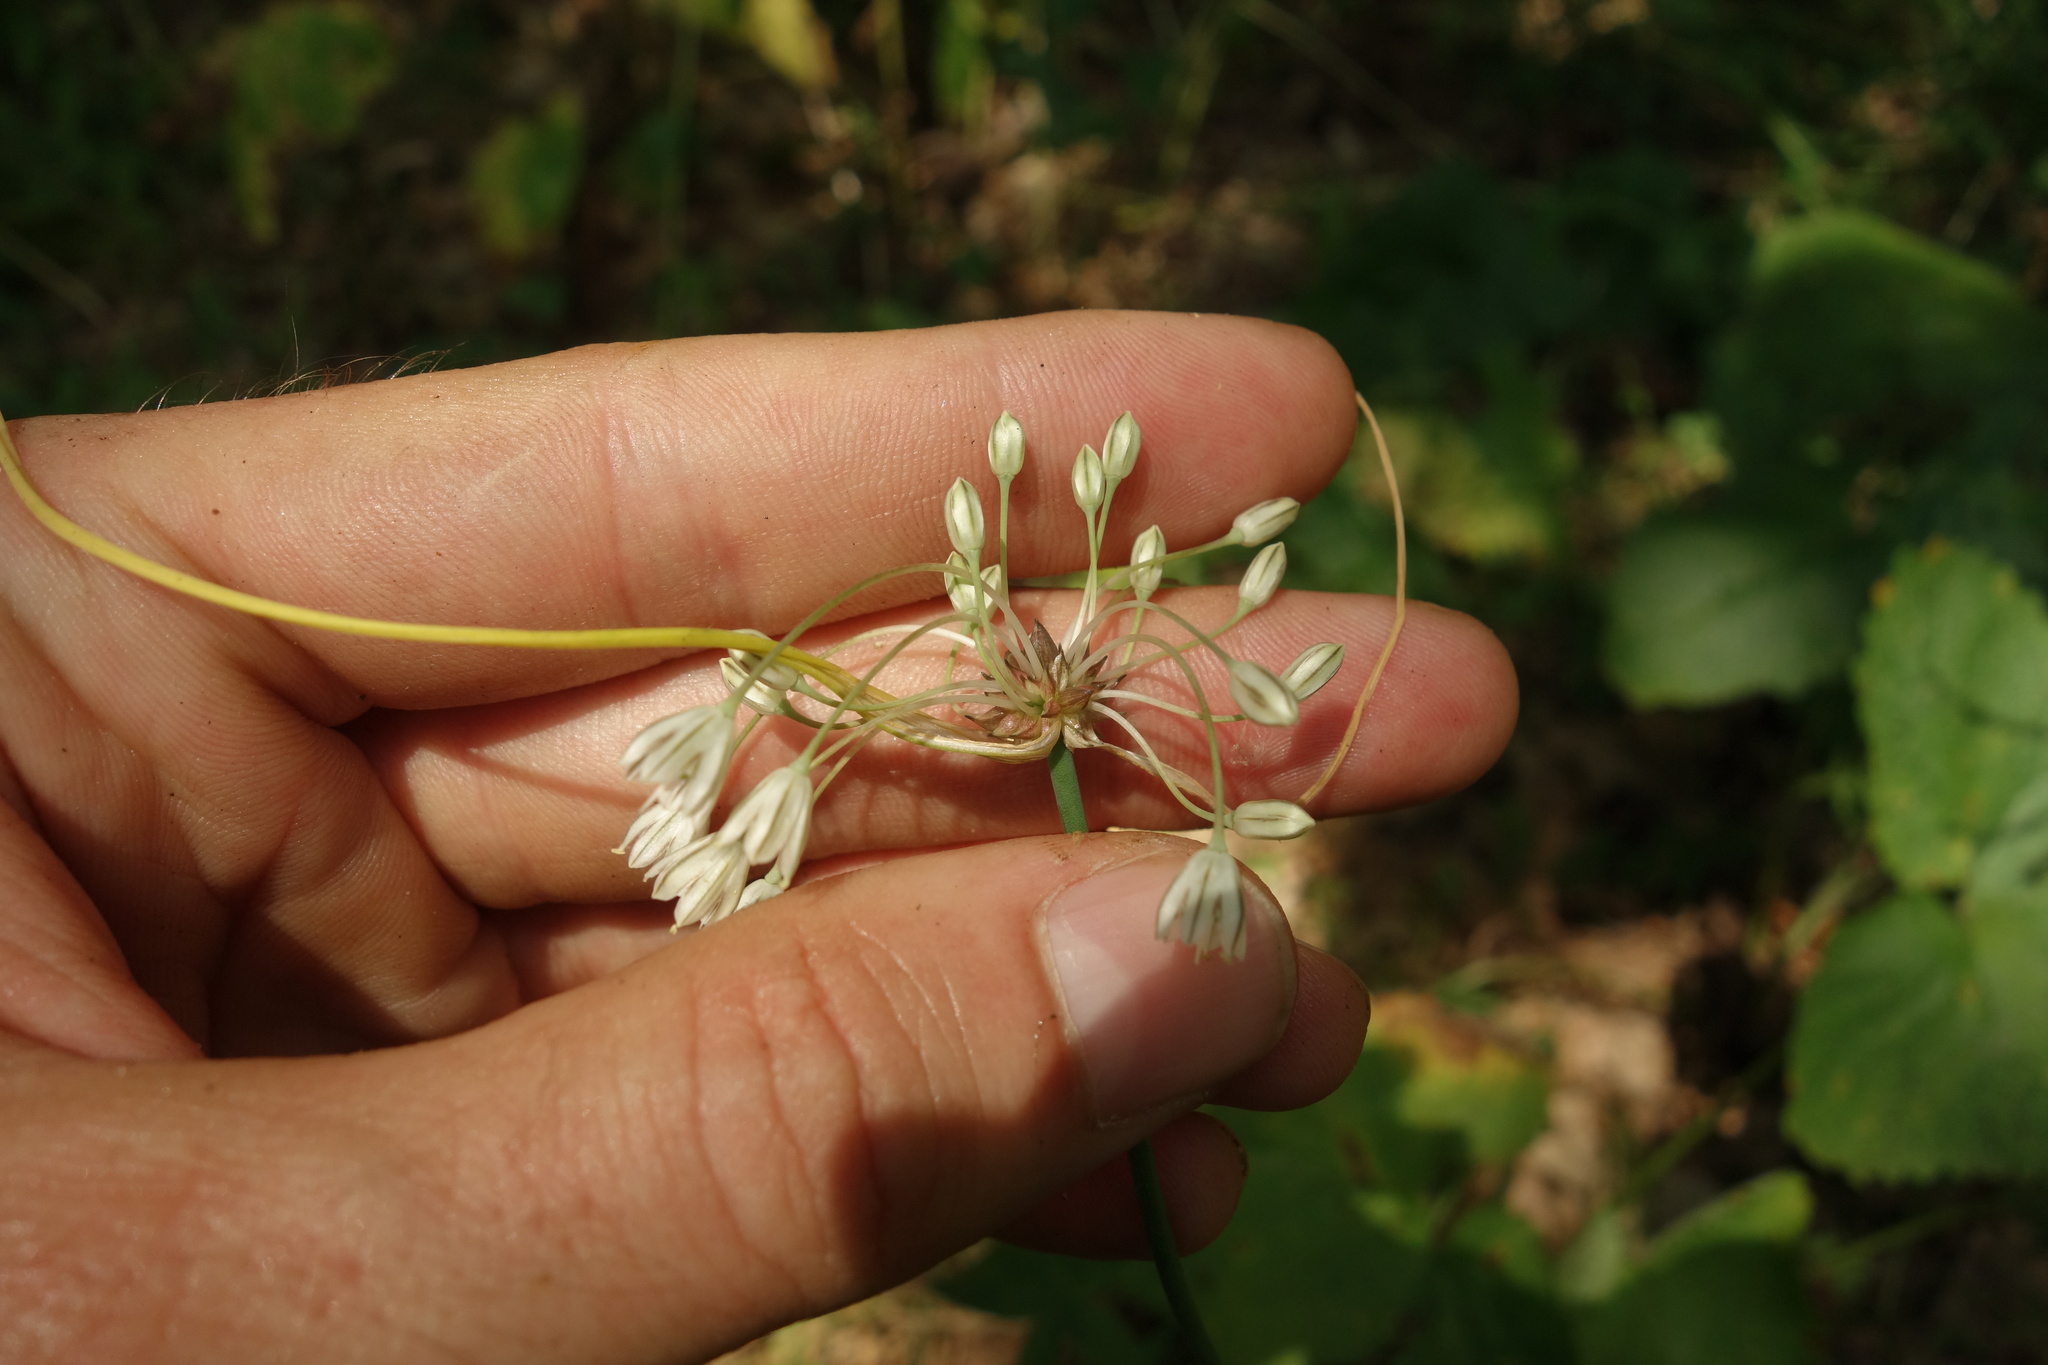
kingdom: Plantae
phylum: Tracheophyta
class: Liliopsida
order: Asparagales
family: Amaryllidaceae
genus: Allium
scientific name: Allium oleraceum
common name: Field garlic
